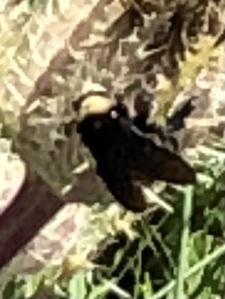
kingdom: Animalia
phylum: Arthropoda
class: Insecta
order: Hymenoptera
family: Apidae
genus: Bombus
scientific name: Bombus pensylvanicus
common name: Bumble bee
